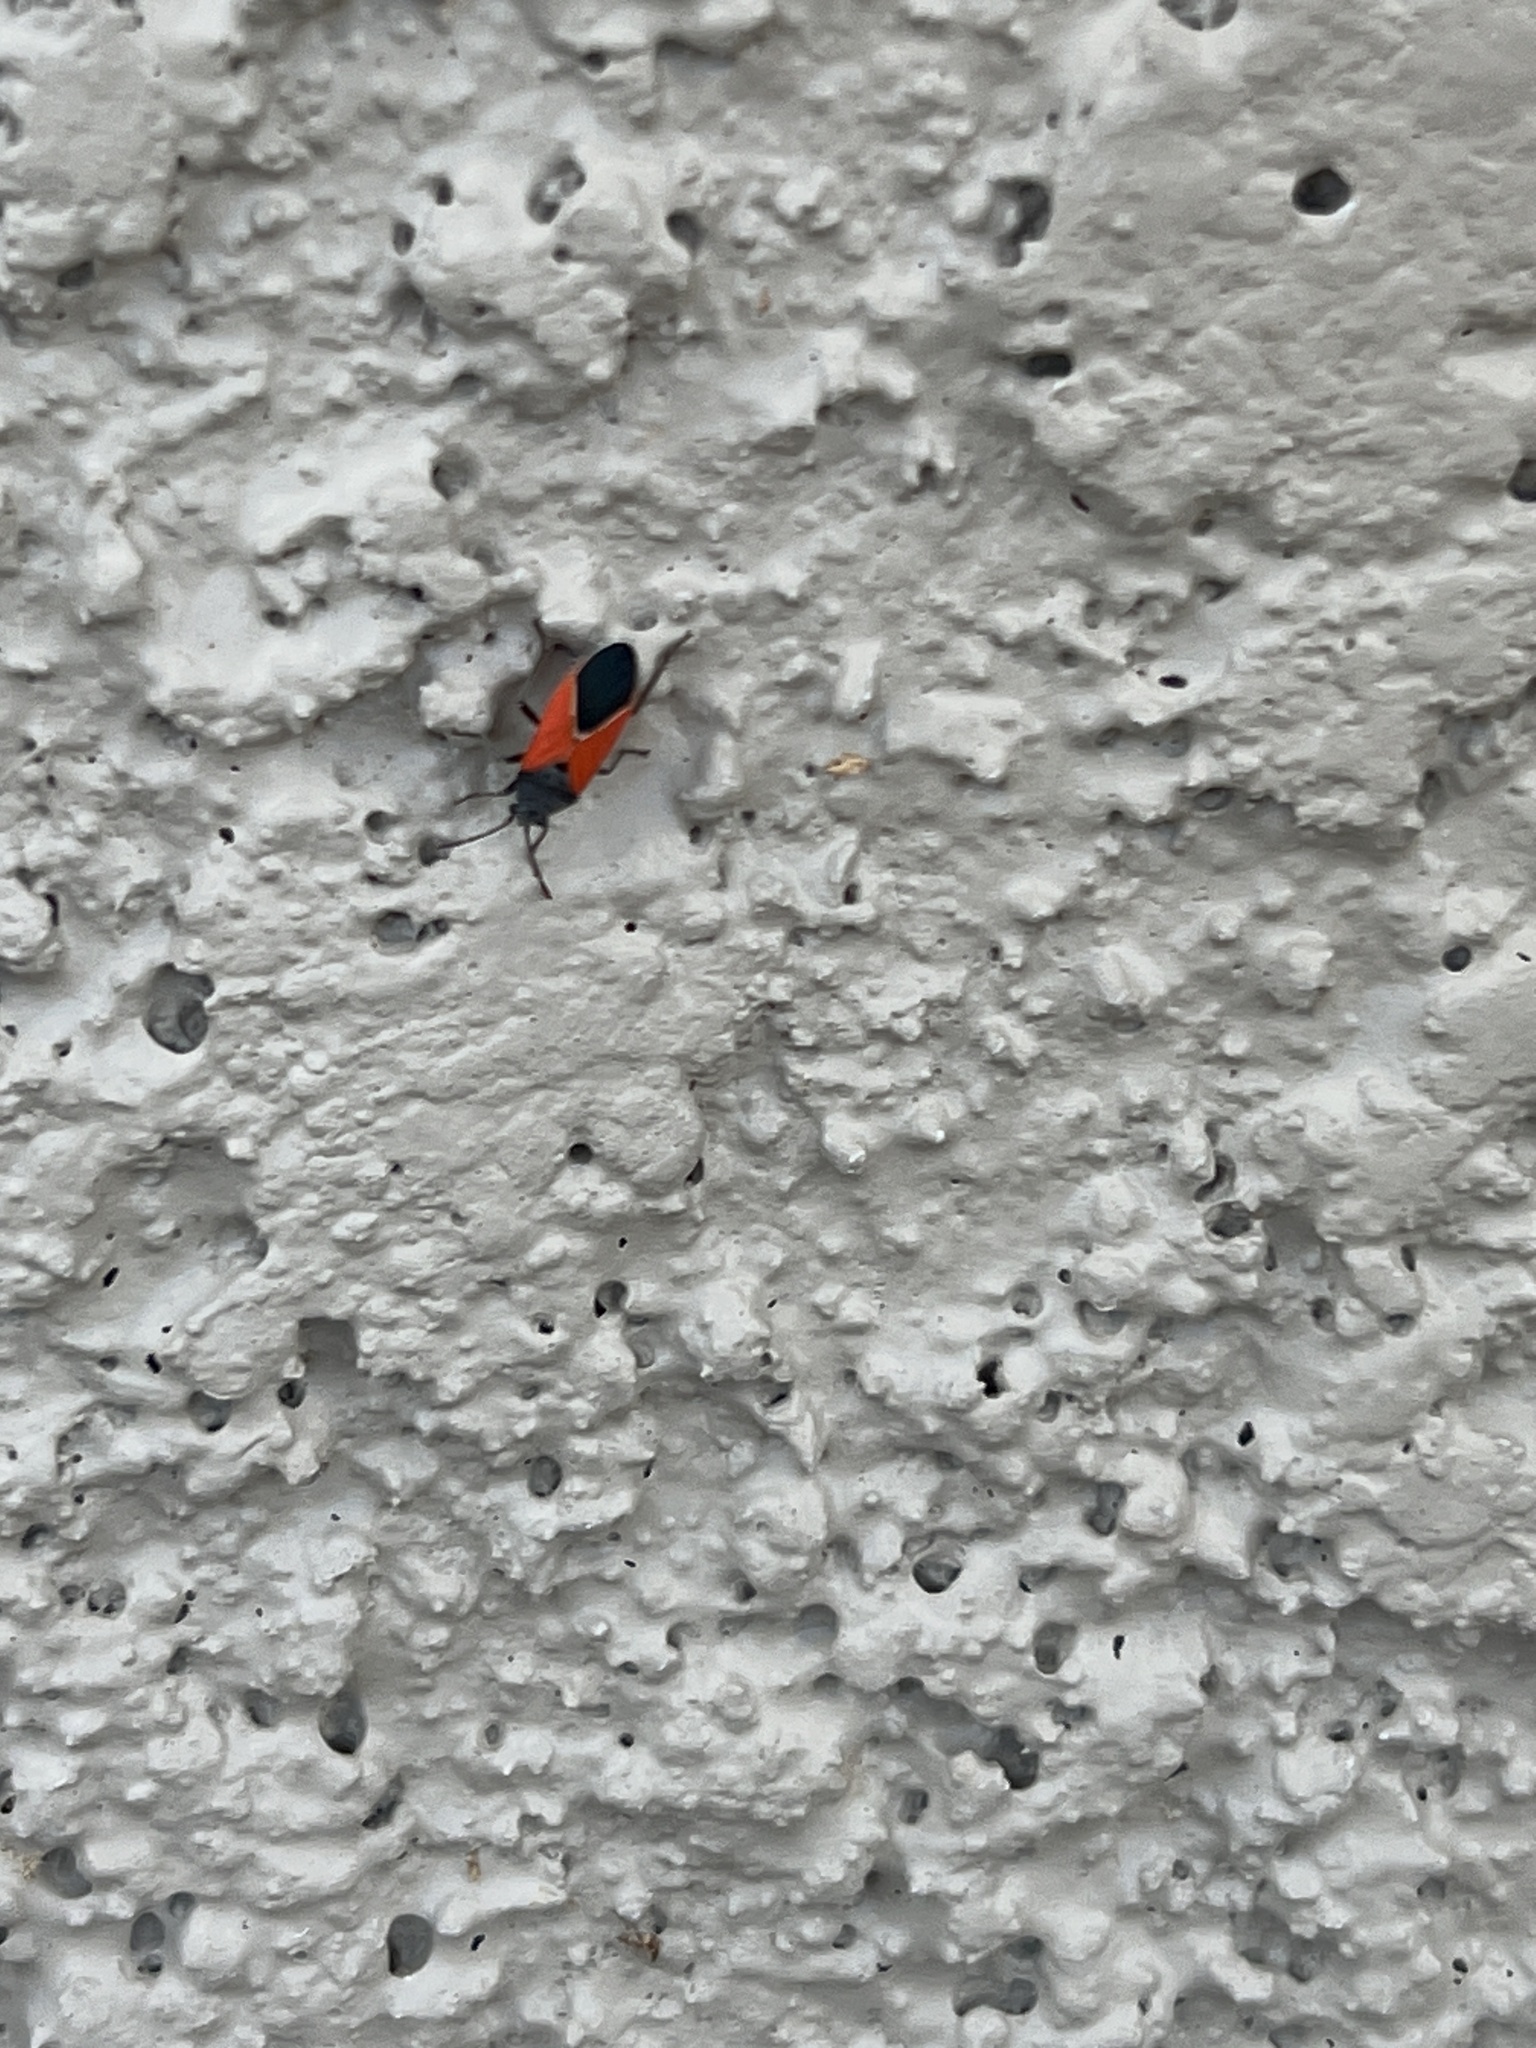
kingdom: Animalia
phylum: Arthropoda
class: Insecta
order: Hemiptera
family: Lygaeidae
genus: Melanopleurus
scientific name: Melanopleurus belfragei
